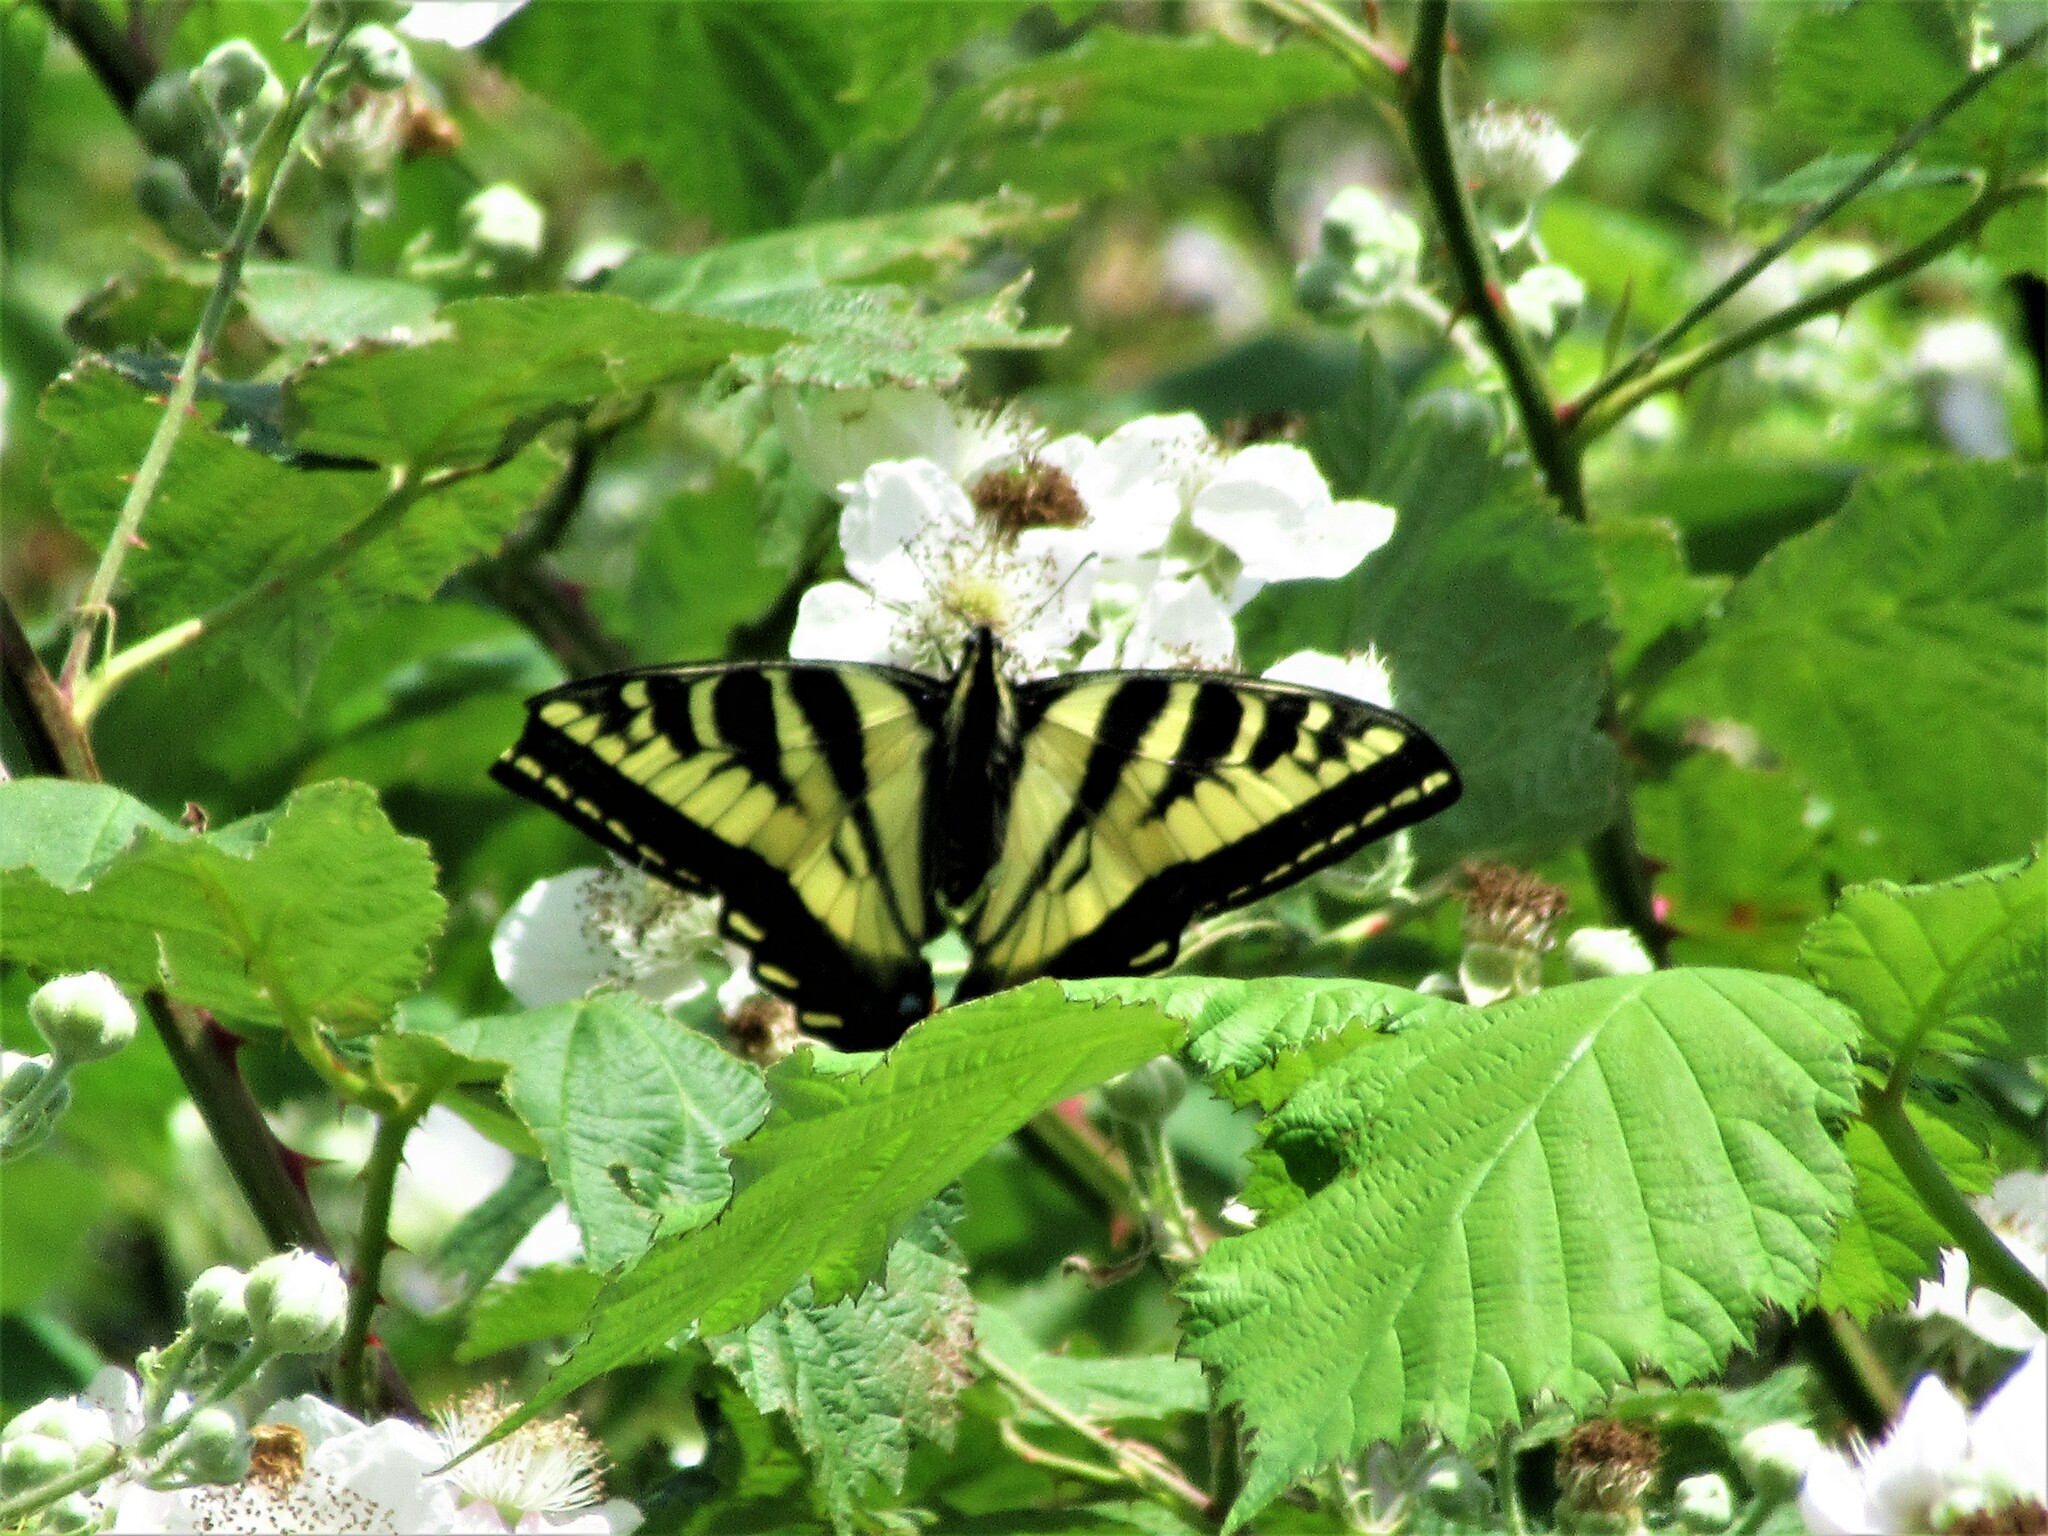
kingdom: Animalia
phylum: Arthropoda
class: Insecta
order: Lepidoptera
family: Papilionidae
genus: Papilio
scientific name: Papilio rutulus
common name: Western tiger swallowtail
